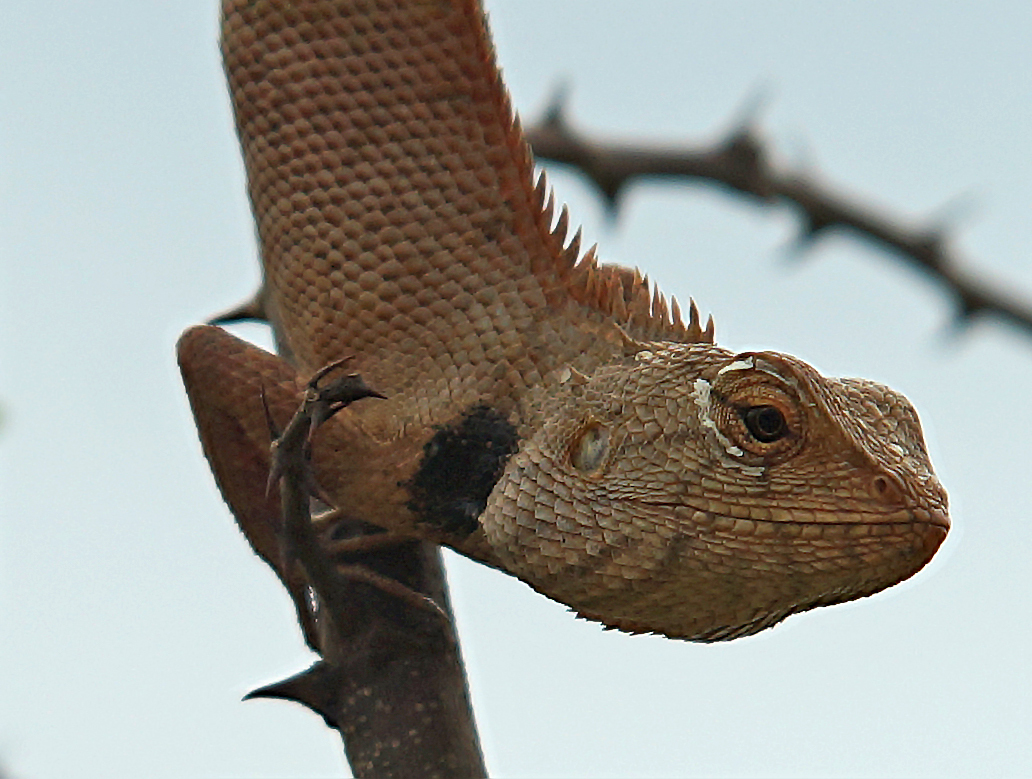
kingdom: Animalia
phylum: Chordata
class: Squamata
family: Agamidae
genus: Calotes
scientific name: Calotes versicolor
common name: Oriental garden lizard
